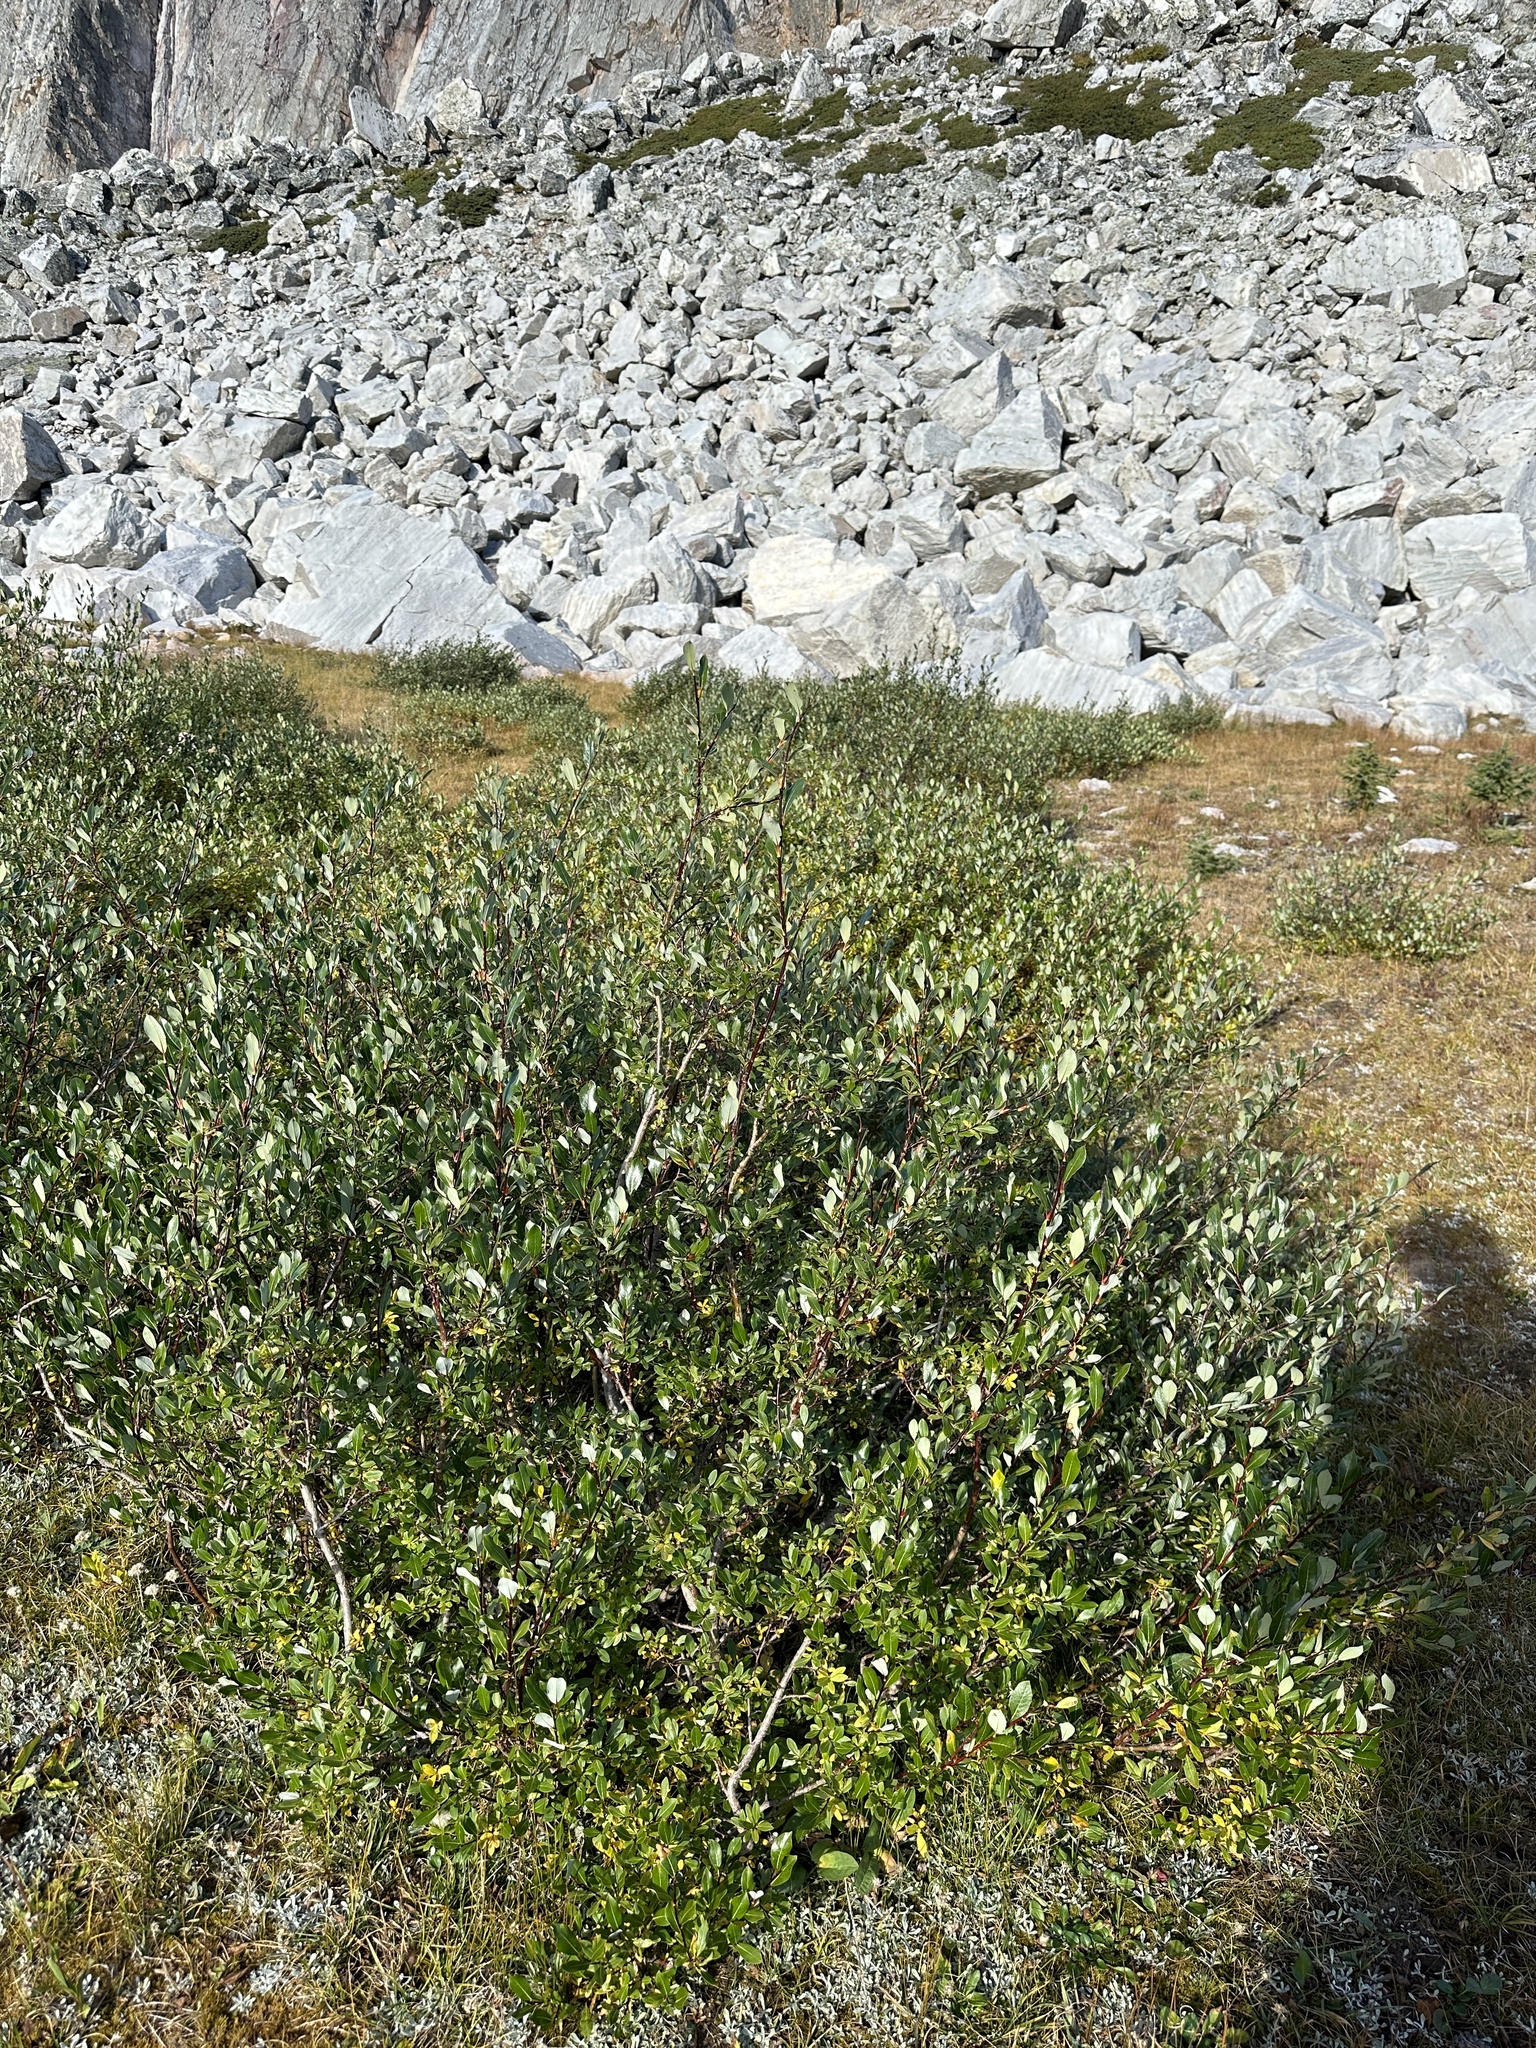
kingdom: Plantae
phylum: Tracheophyta
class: Magnoliopsida
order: Malpighiales
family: Salicaceae
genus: Salix
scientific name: Salix planifolia
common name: Mountain willow
